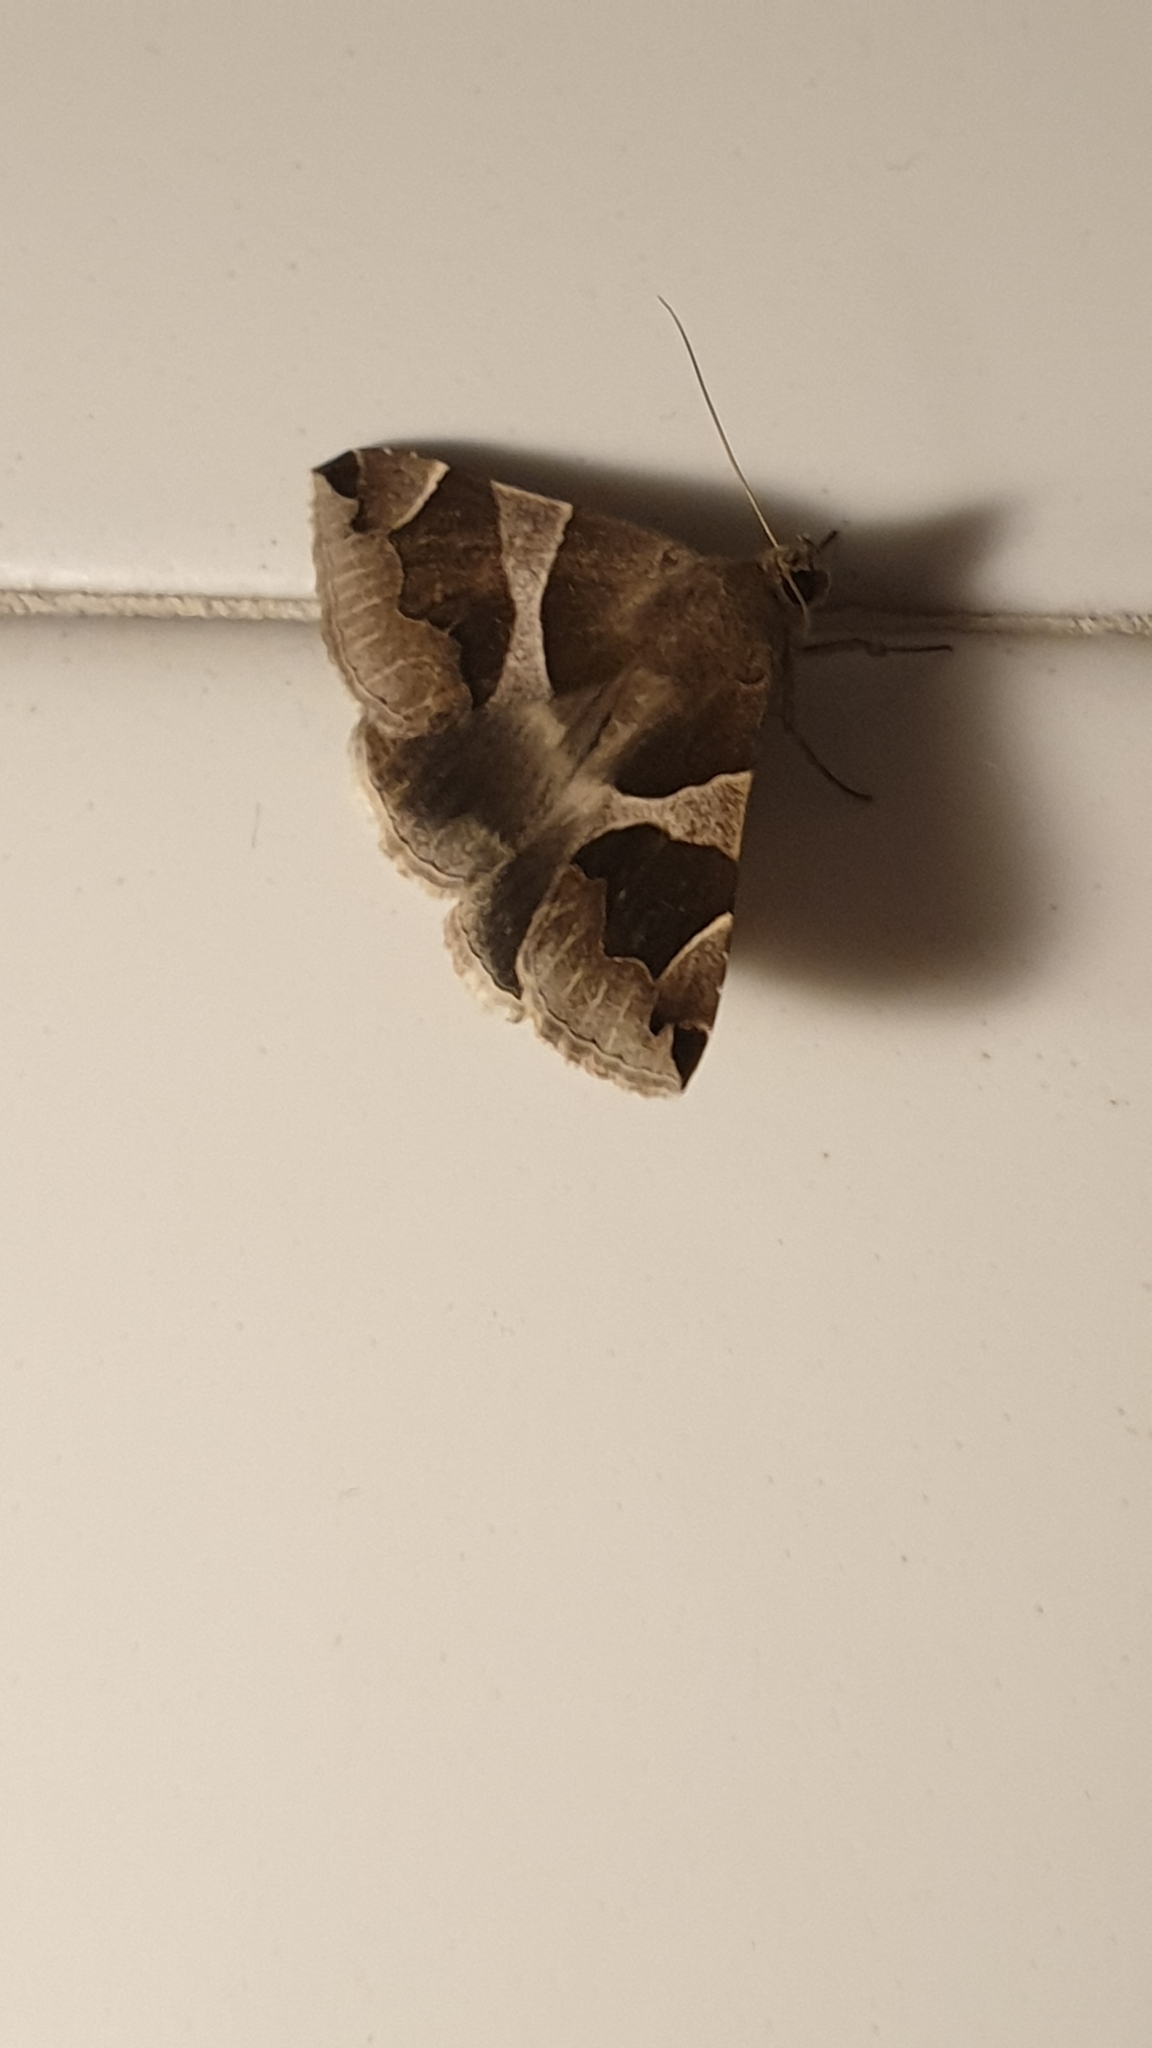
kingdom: Animalia
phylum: Arthropoda
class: Insecta
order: Lepidoptera
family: Erebidae
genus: Dysgonia
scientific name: Dysgonia algira
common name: Passenger
